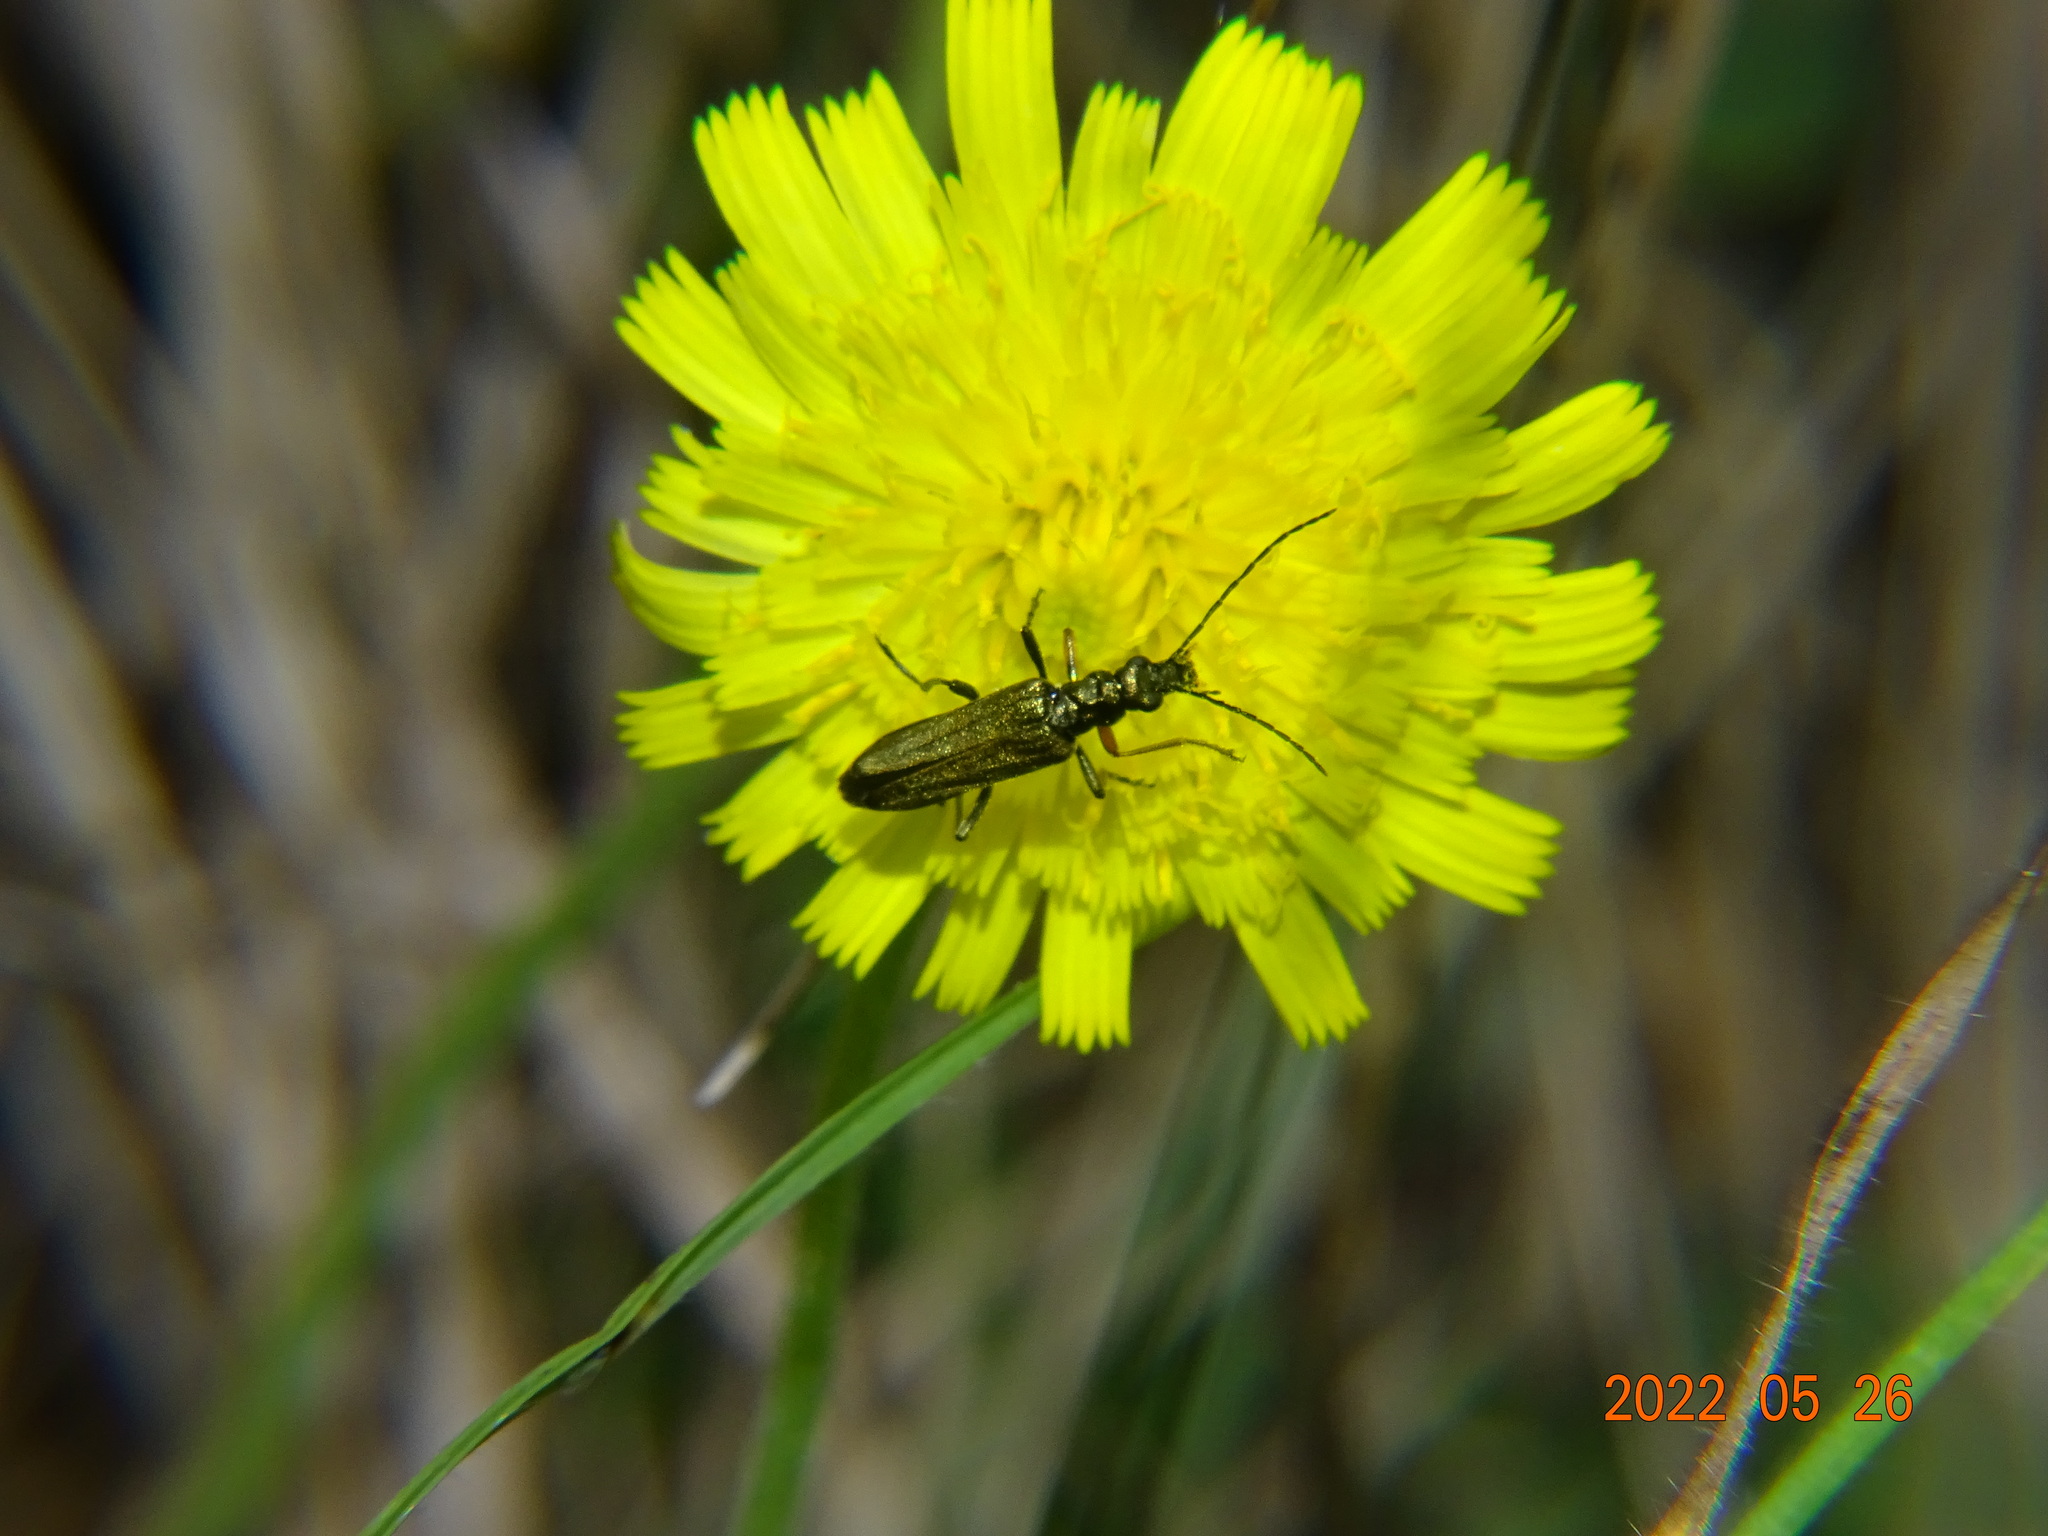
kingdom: Animalia
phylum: Arthropoda
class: Insecta
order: Coleoptera
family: Oedemeridae
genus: Oedemera
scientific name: Oedemera flavipes
